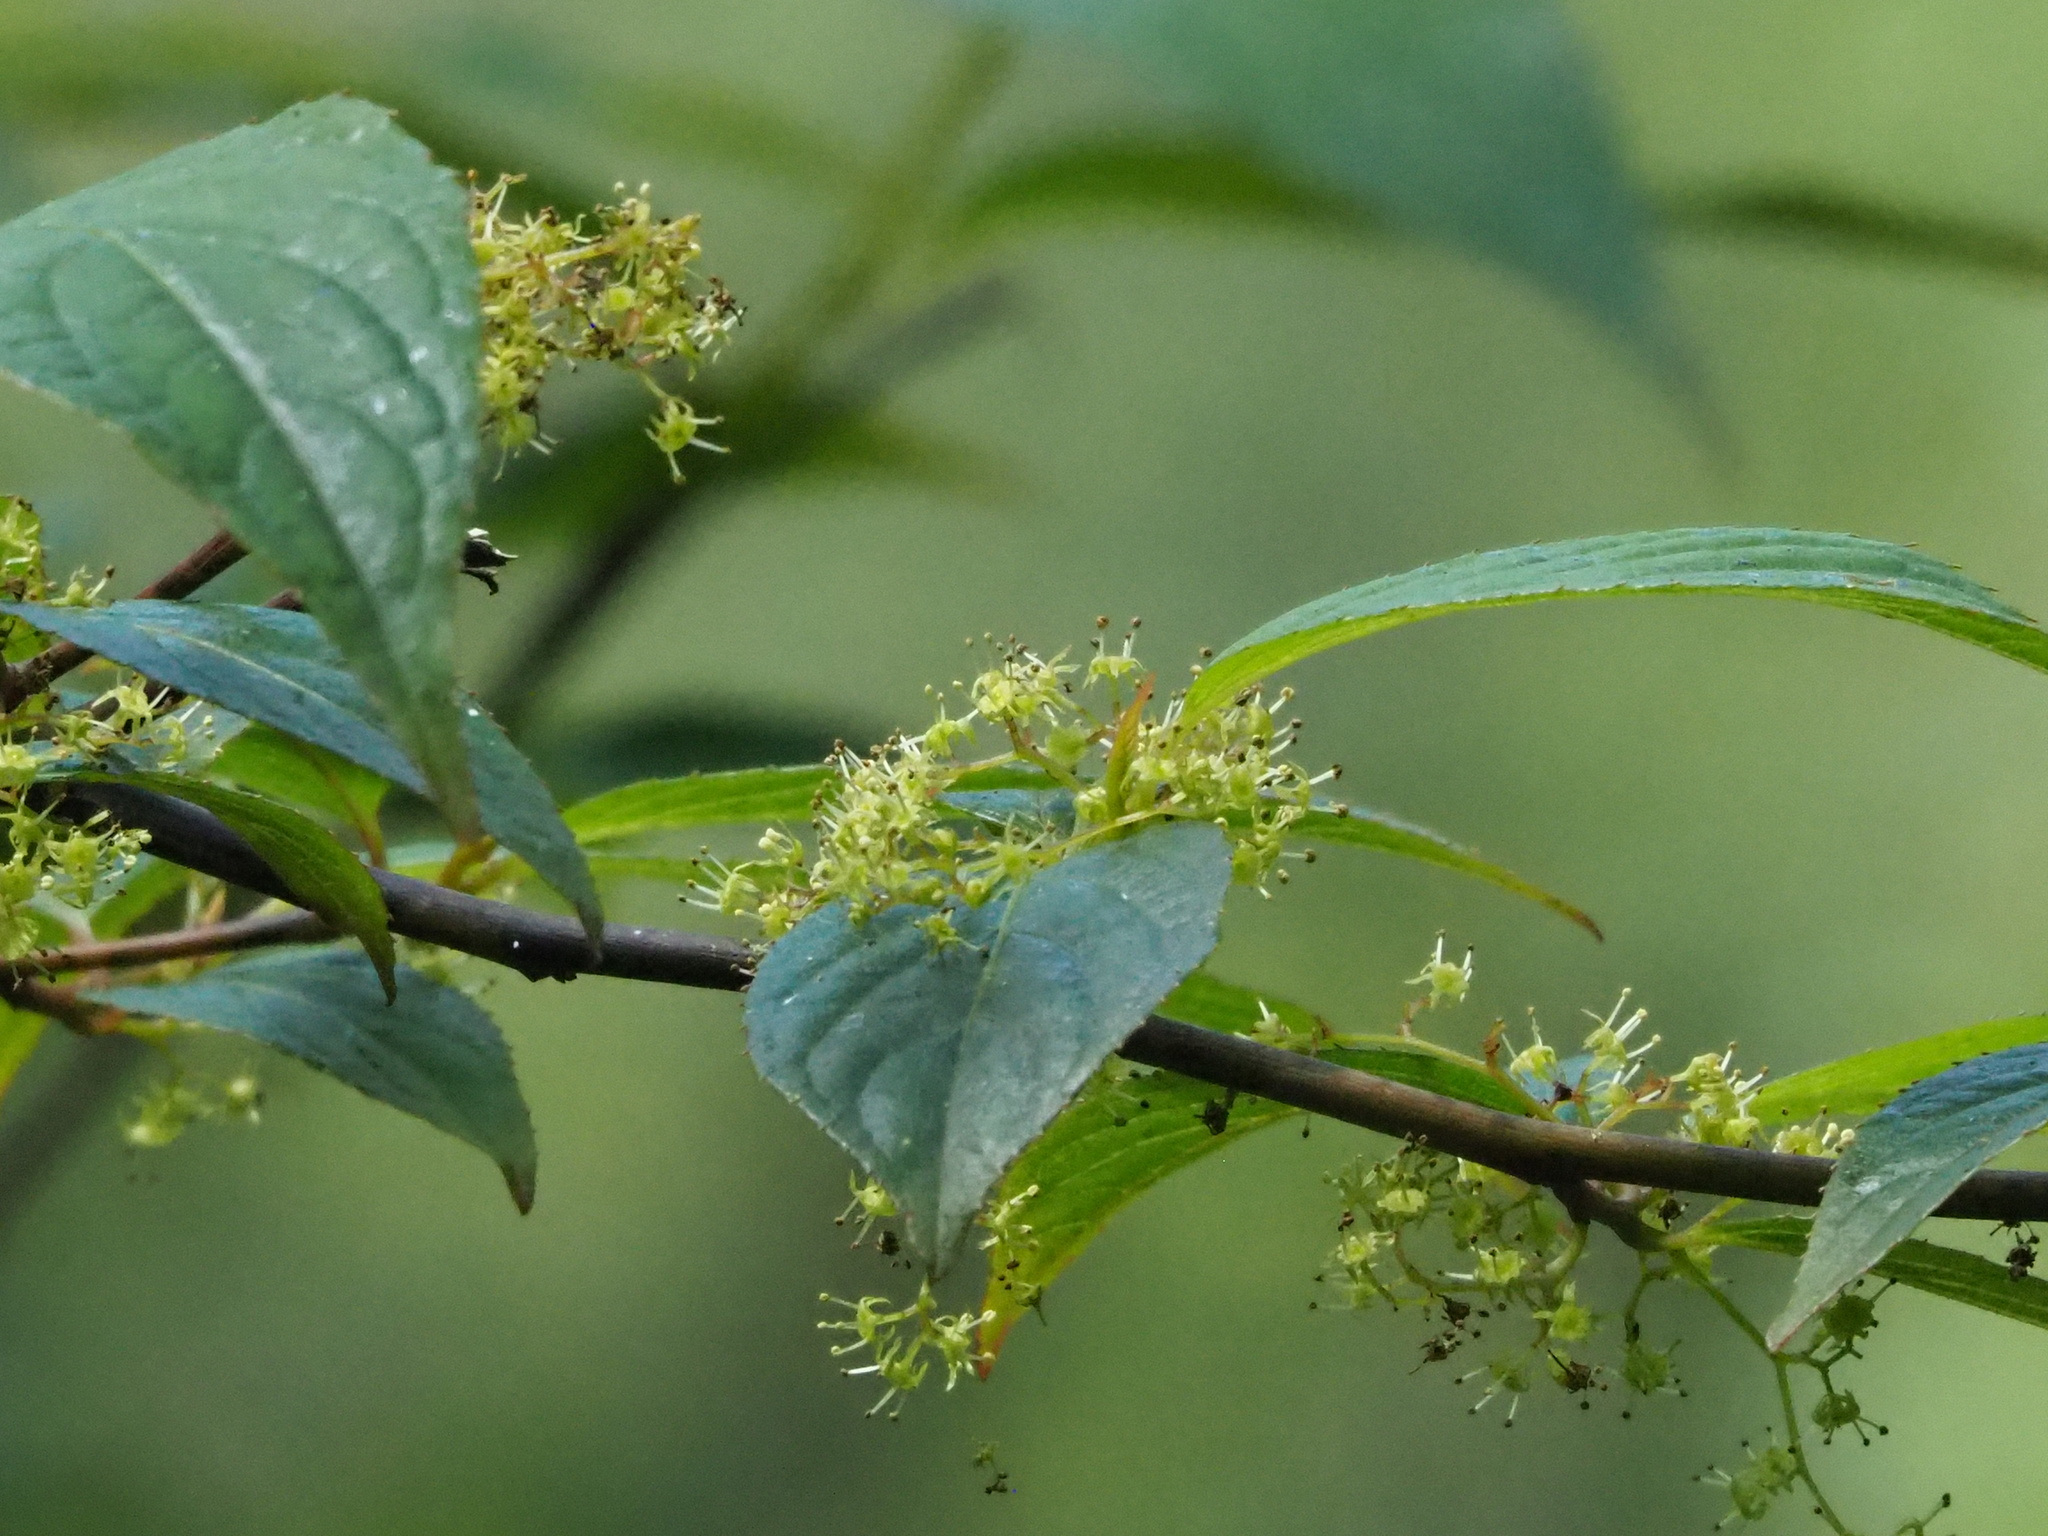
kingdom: Plantae
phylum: Tracheophyta
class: Magnoliopsida
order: Huerteales
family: Dipentodontaceae
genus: Perrottetia
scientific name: Perrottetia arisanensis
